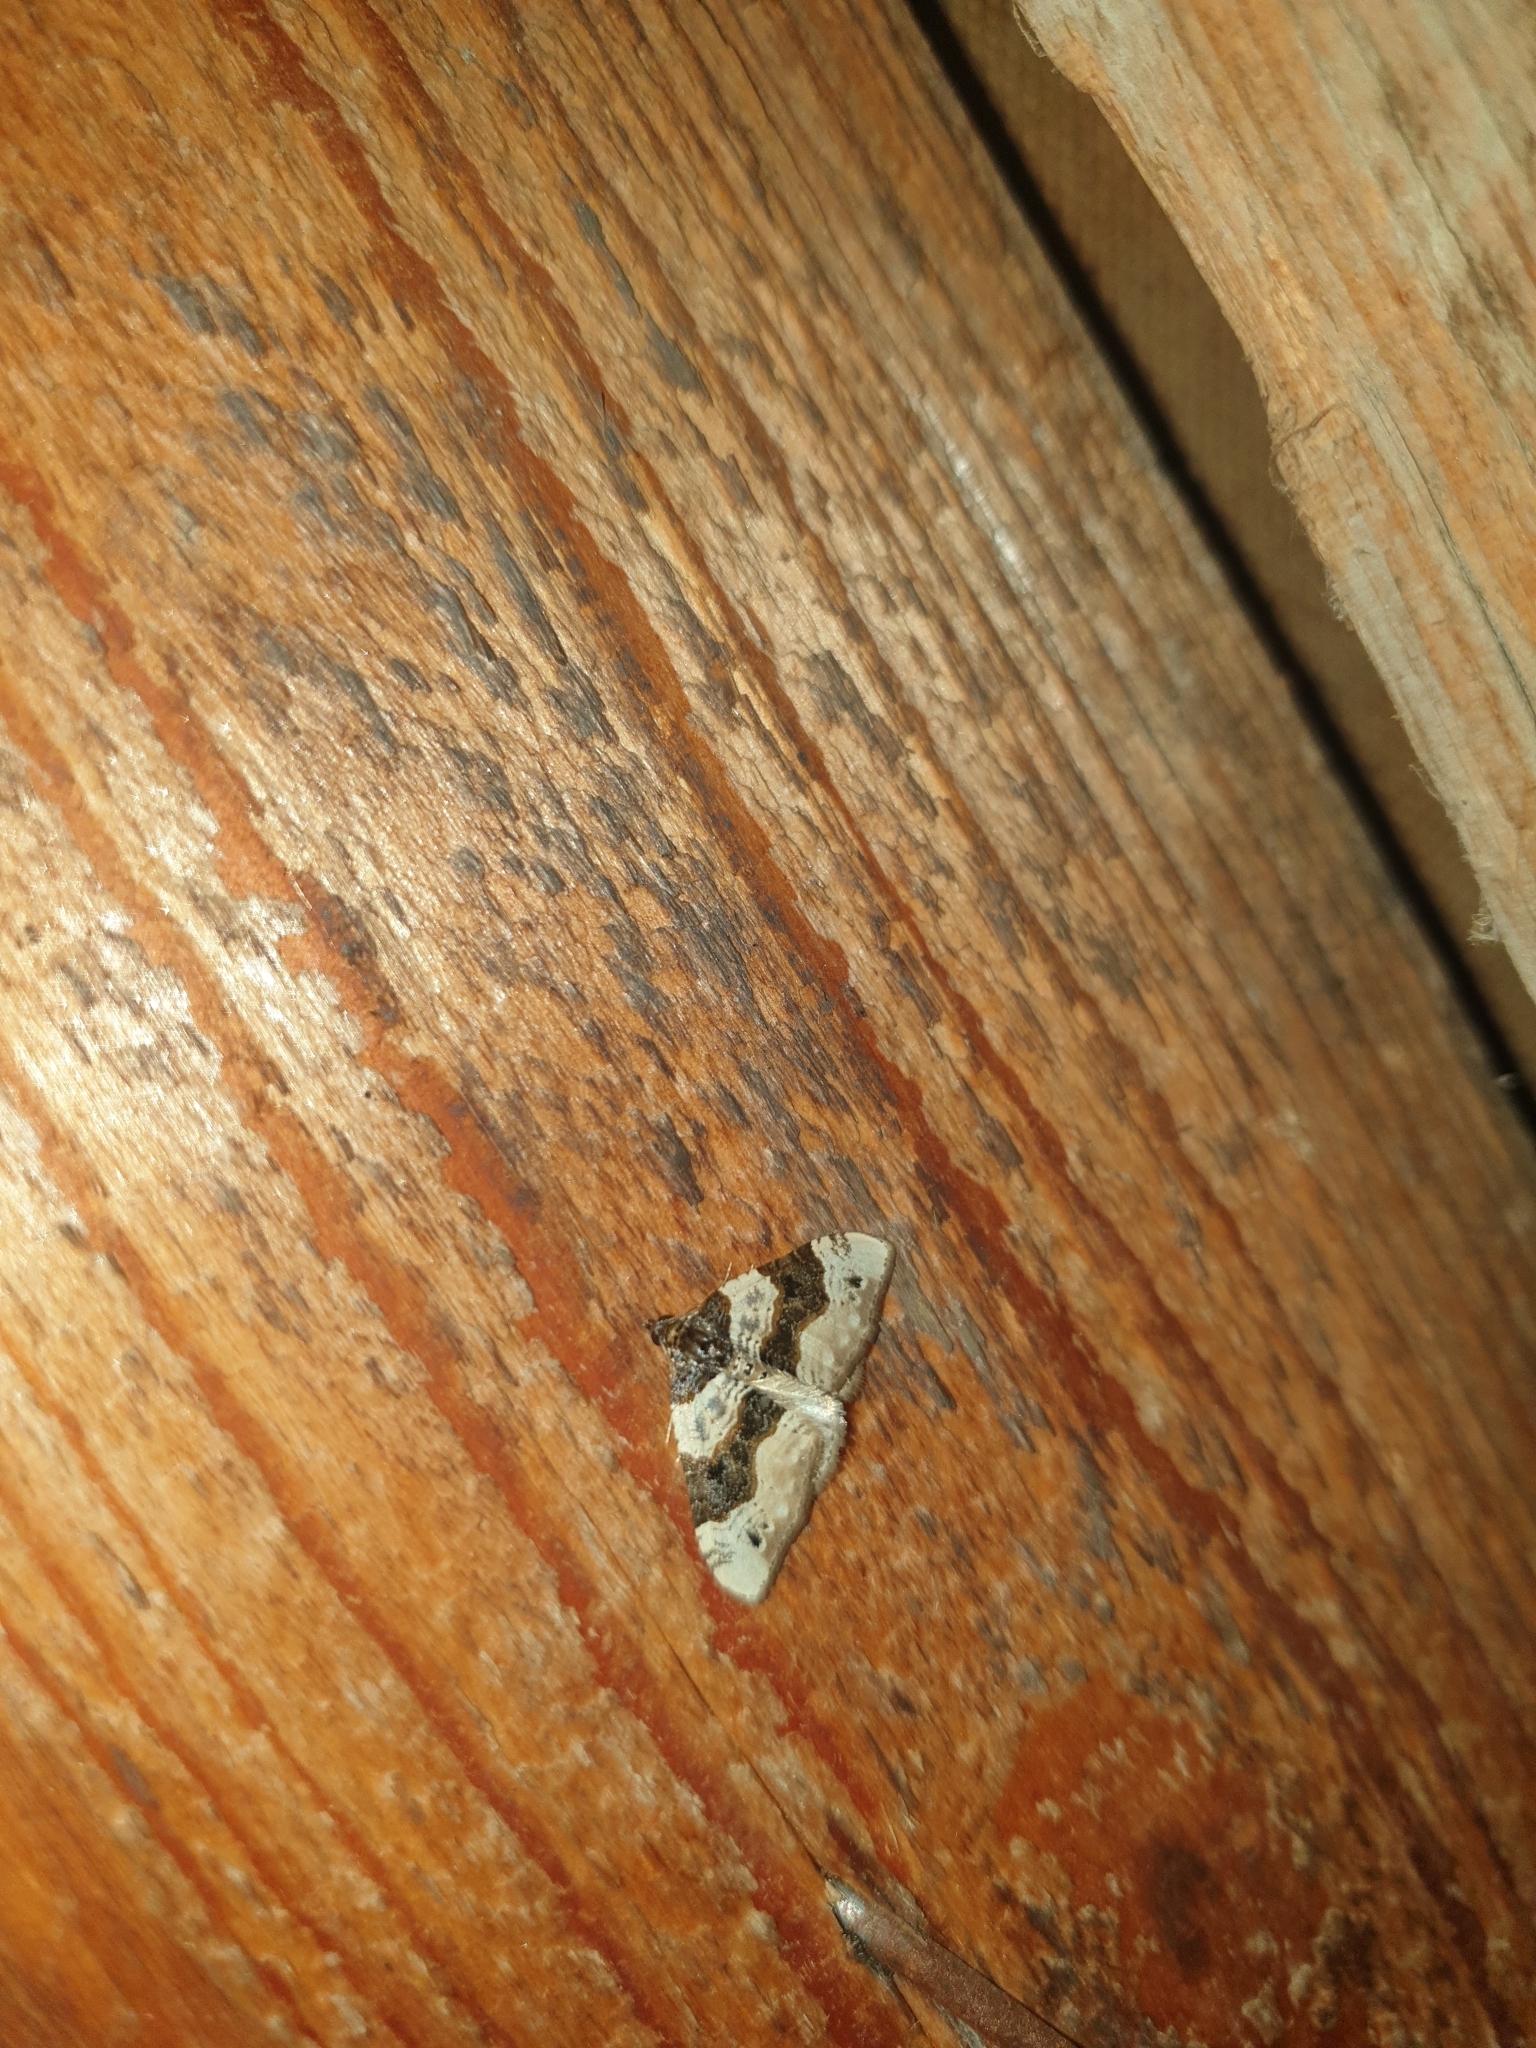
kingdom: Animalia
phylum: Arthropoda
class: Insecta
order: Lepidoptera
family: Geometridae
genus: Cosmorhoe
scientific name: Cosmorhoe ocellata
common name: Purple bar
